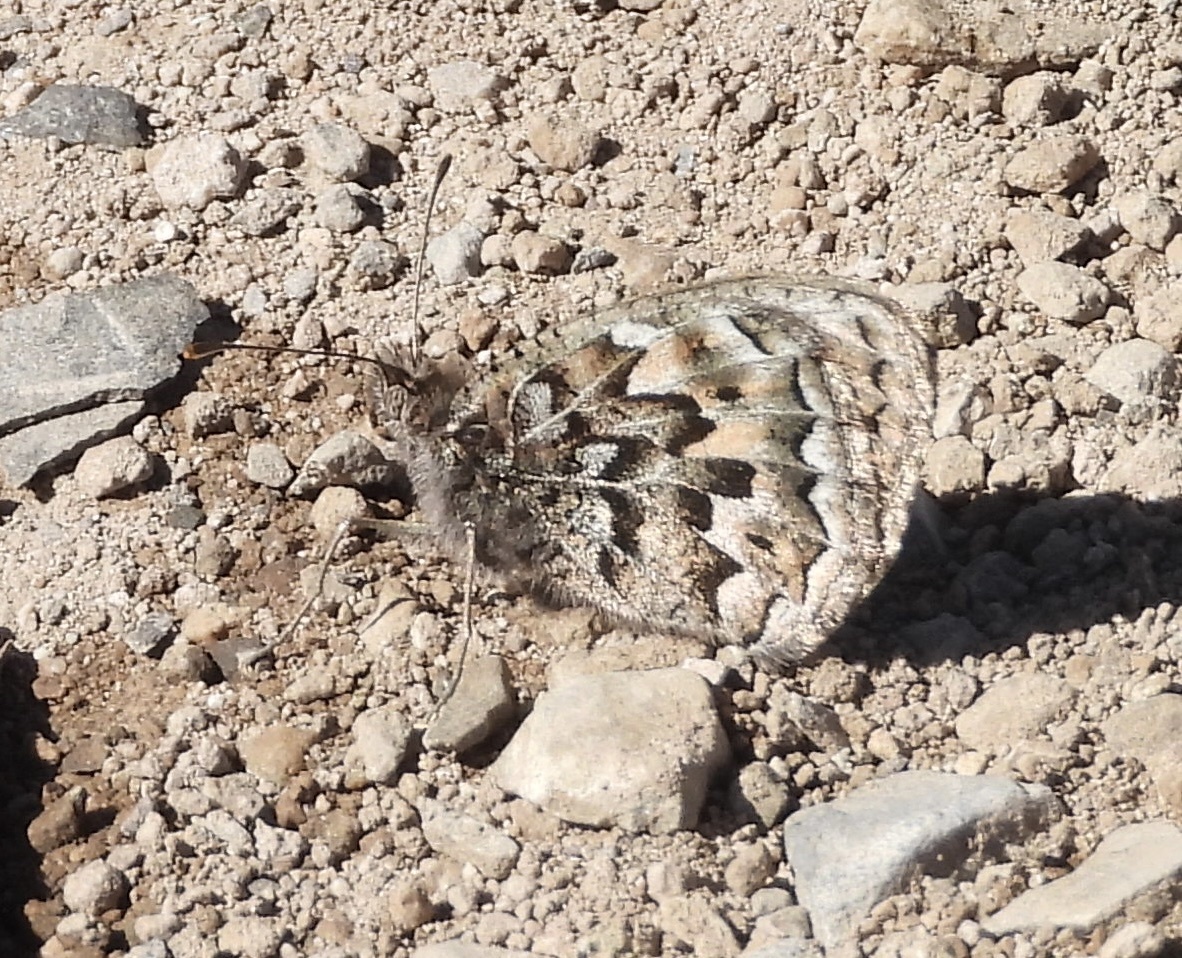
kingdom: Animalia
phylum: Arthropoda
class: Insecta
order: Lepidoptera
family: Nymphalidae
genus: Argyrophorus
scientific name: Argyrophorus
